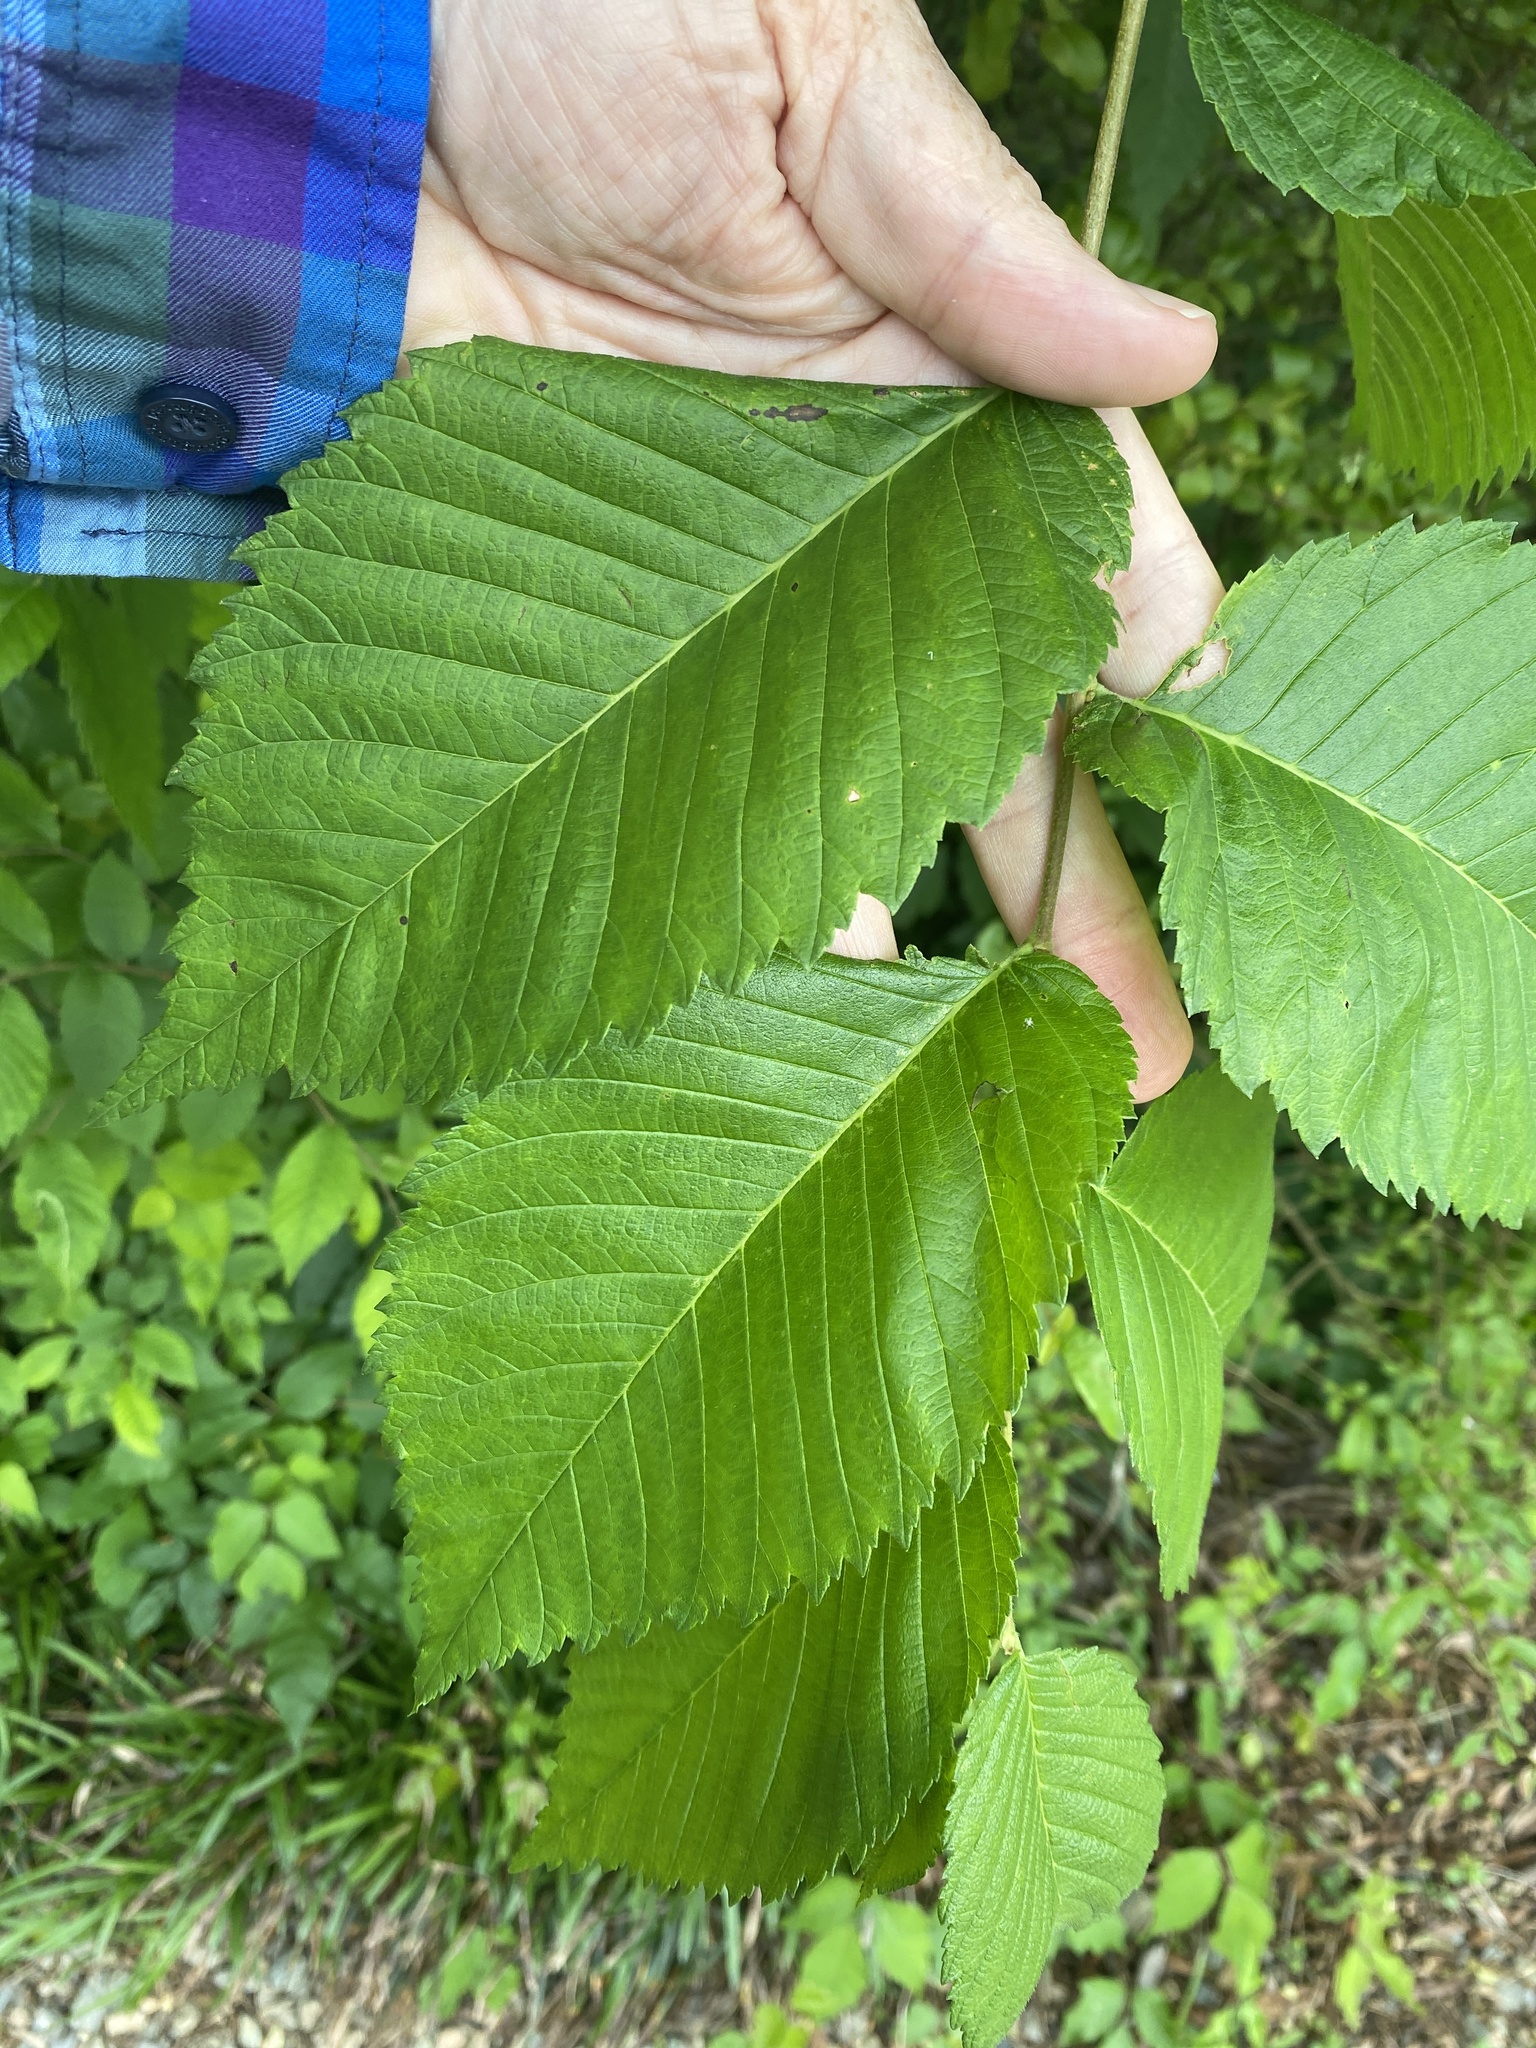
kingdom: Plantae
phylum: Tracheophyta
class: Magnoliopsida
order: Rosales
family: Ulmaceae
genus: Ulmus
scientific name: Ulmus rubra
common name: Slippery elm
